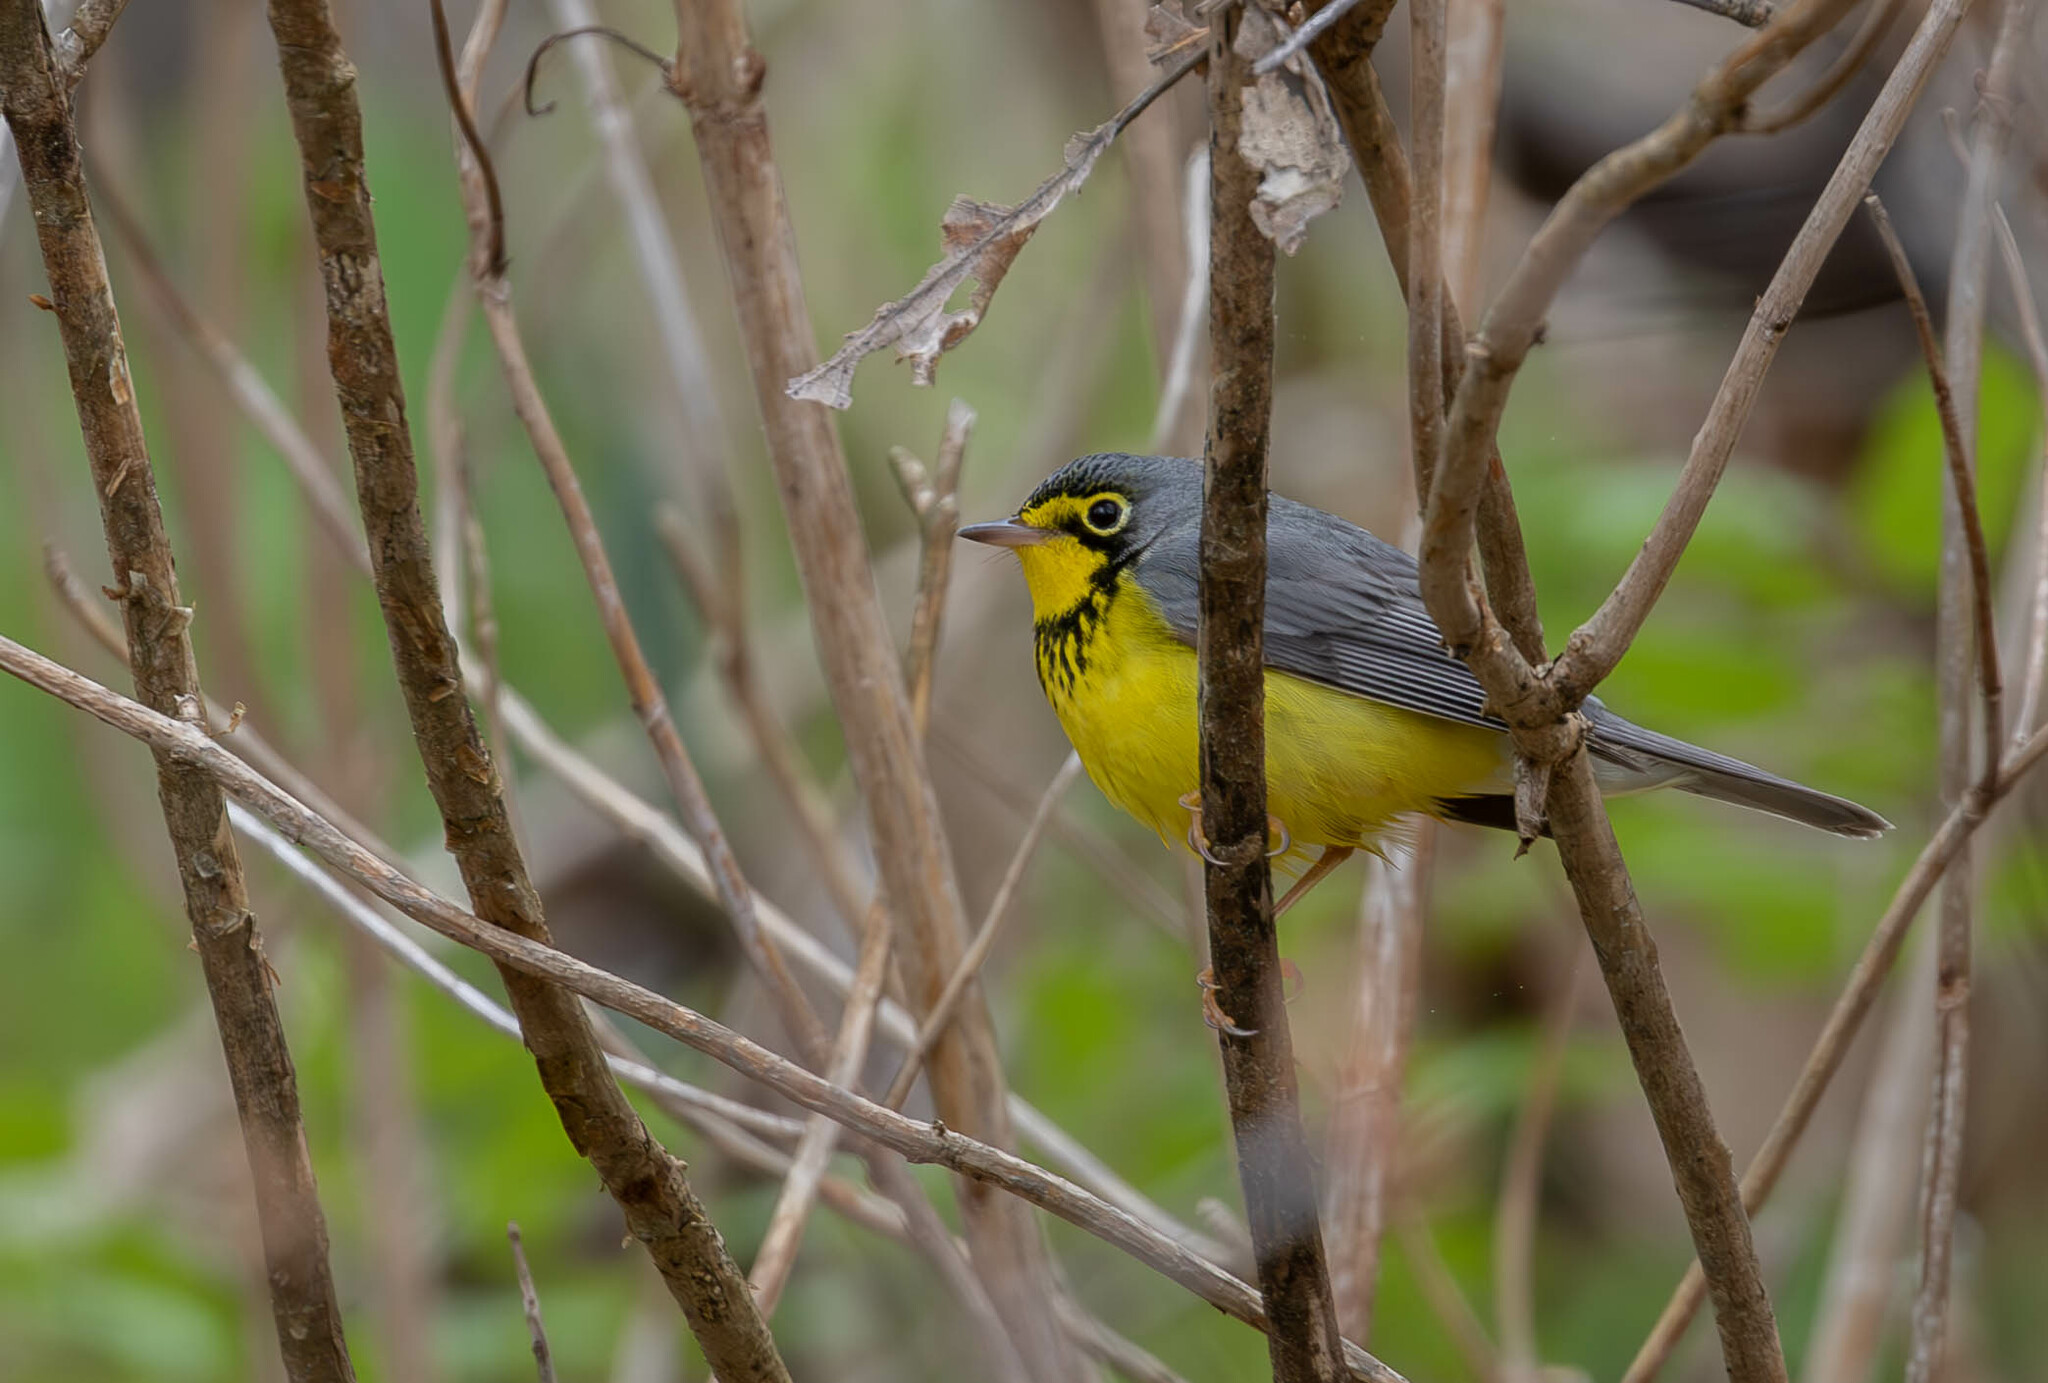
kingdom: Animalia
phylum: Chordata
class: Aves
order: Passeriformes
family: Parulidae
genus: Cardellina
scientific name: Cardellina canadensis
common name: Canada warbler
